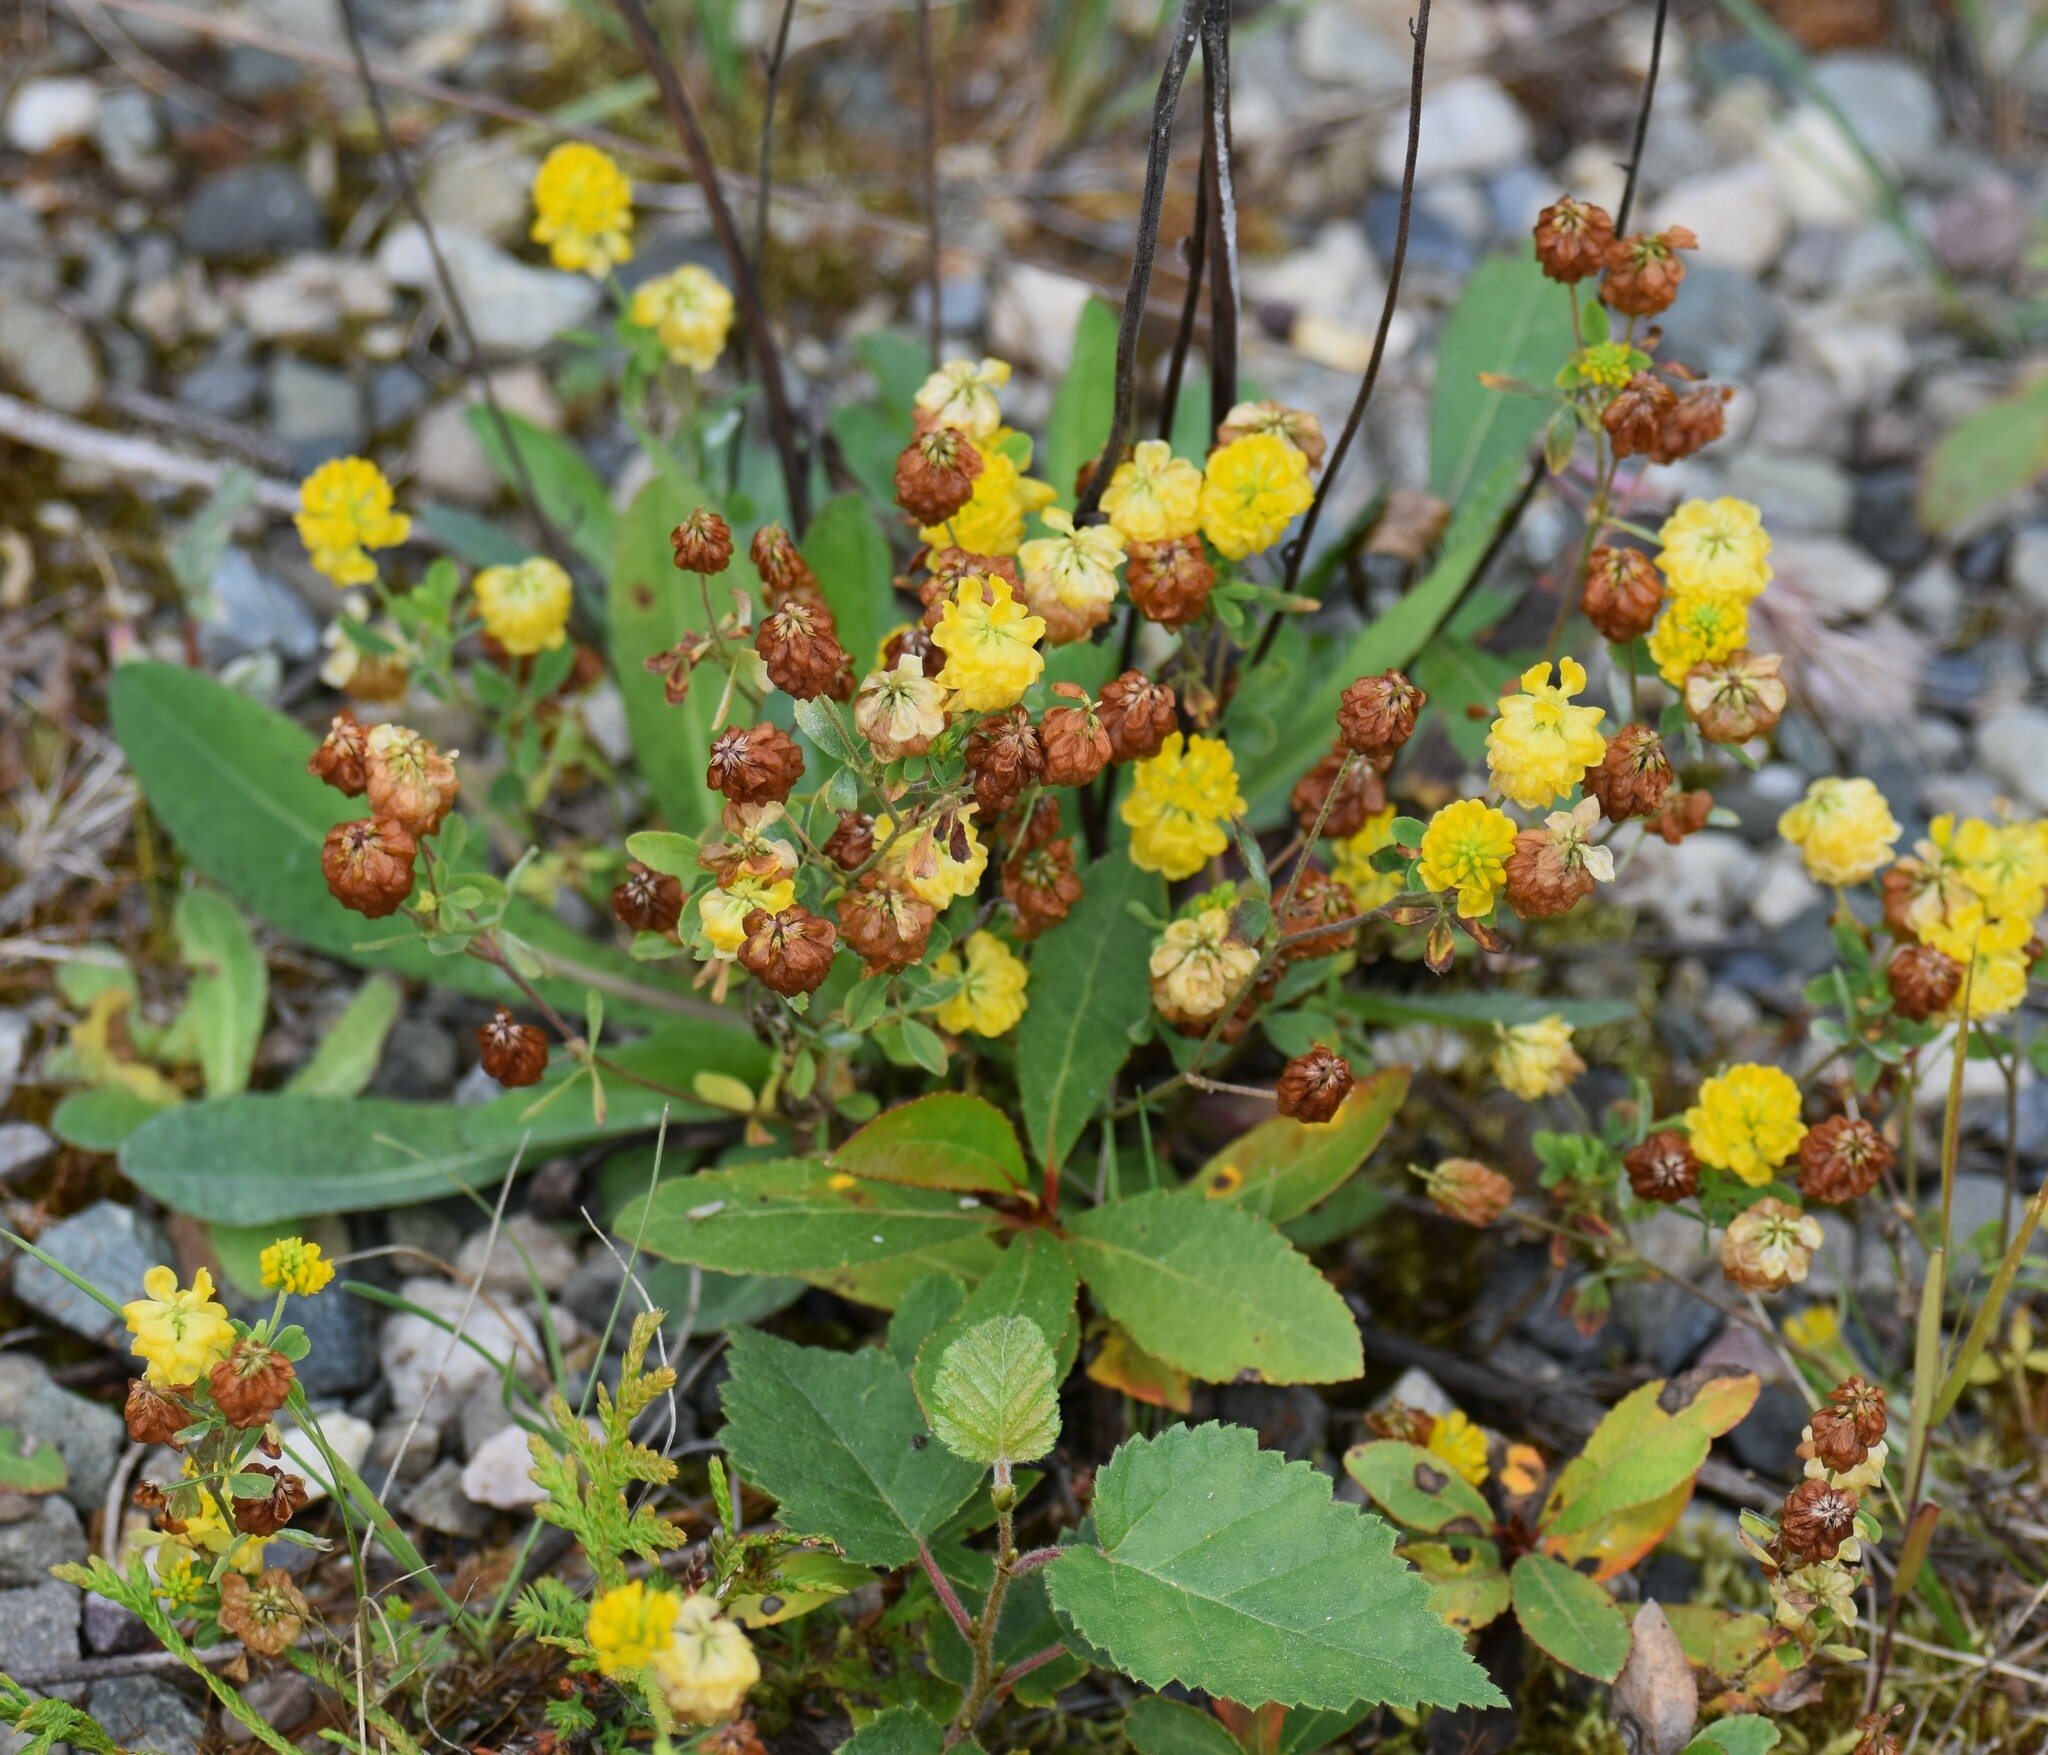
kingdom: Plantae
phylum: Tracheophyta
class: Magnoliopsida
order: Fabales
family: Fabaceae
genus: Trifolium
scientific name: Trifolium aureum
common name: Golden clover
